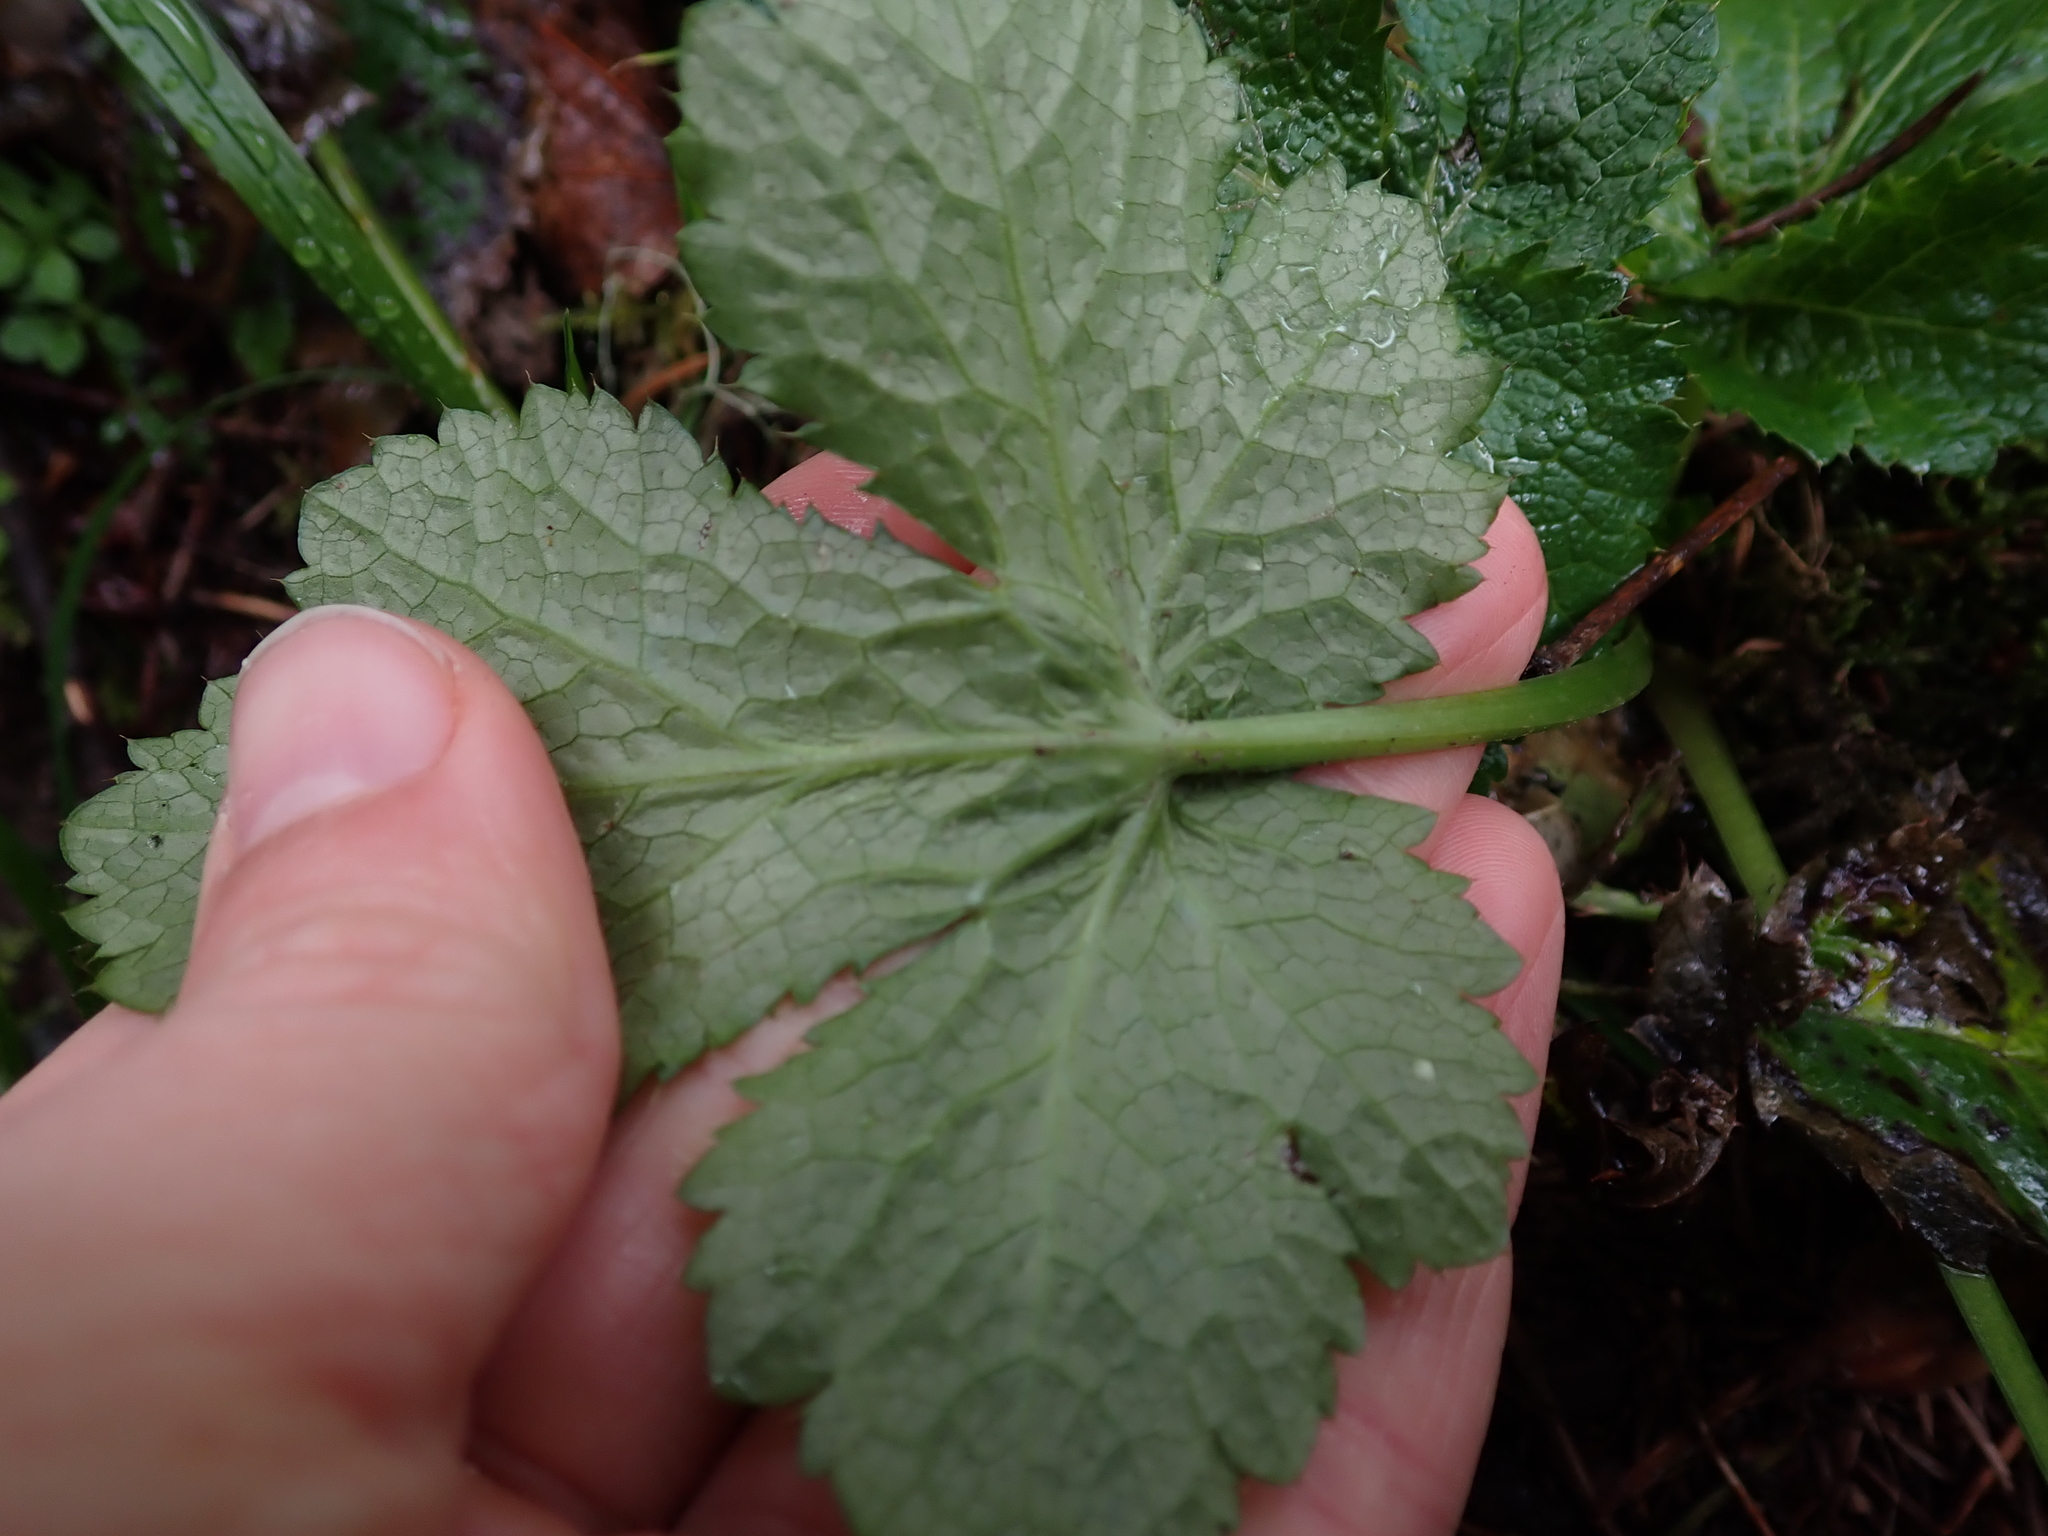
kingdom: Plantae
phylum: Tracheophyta
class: Magnoliopsida
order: Apiales
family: Apiaceae
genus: Sanicula
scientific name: Sanicula crassicaulis
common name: Western snakeroot
